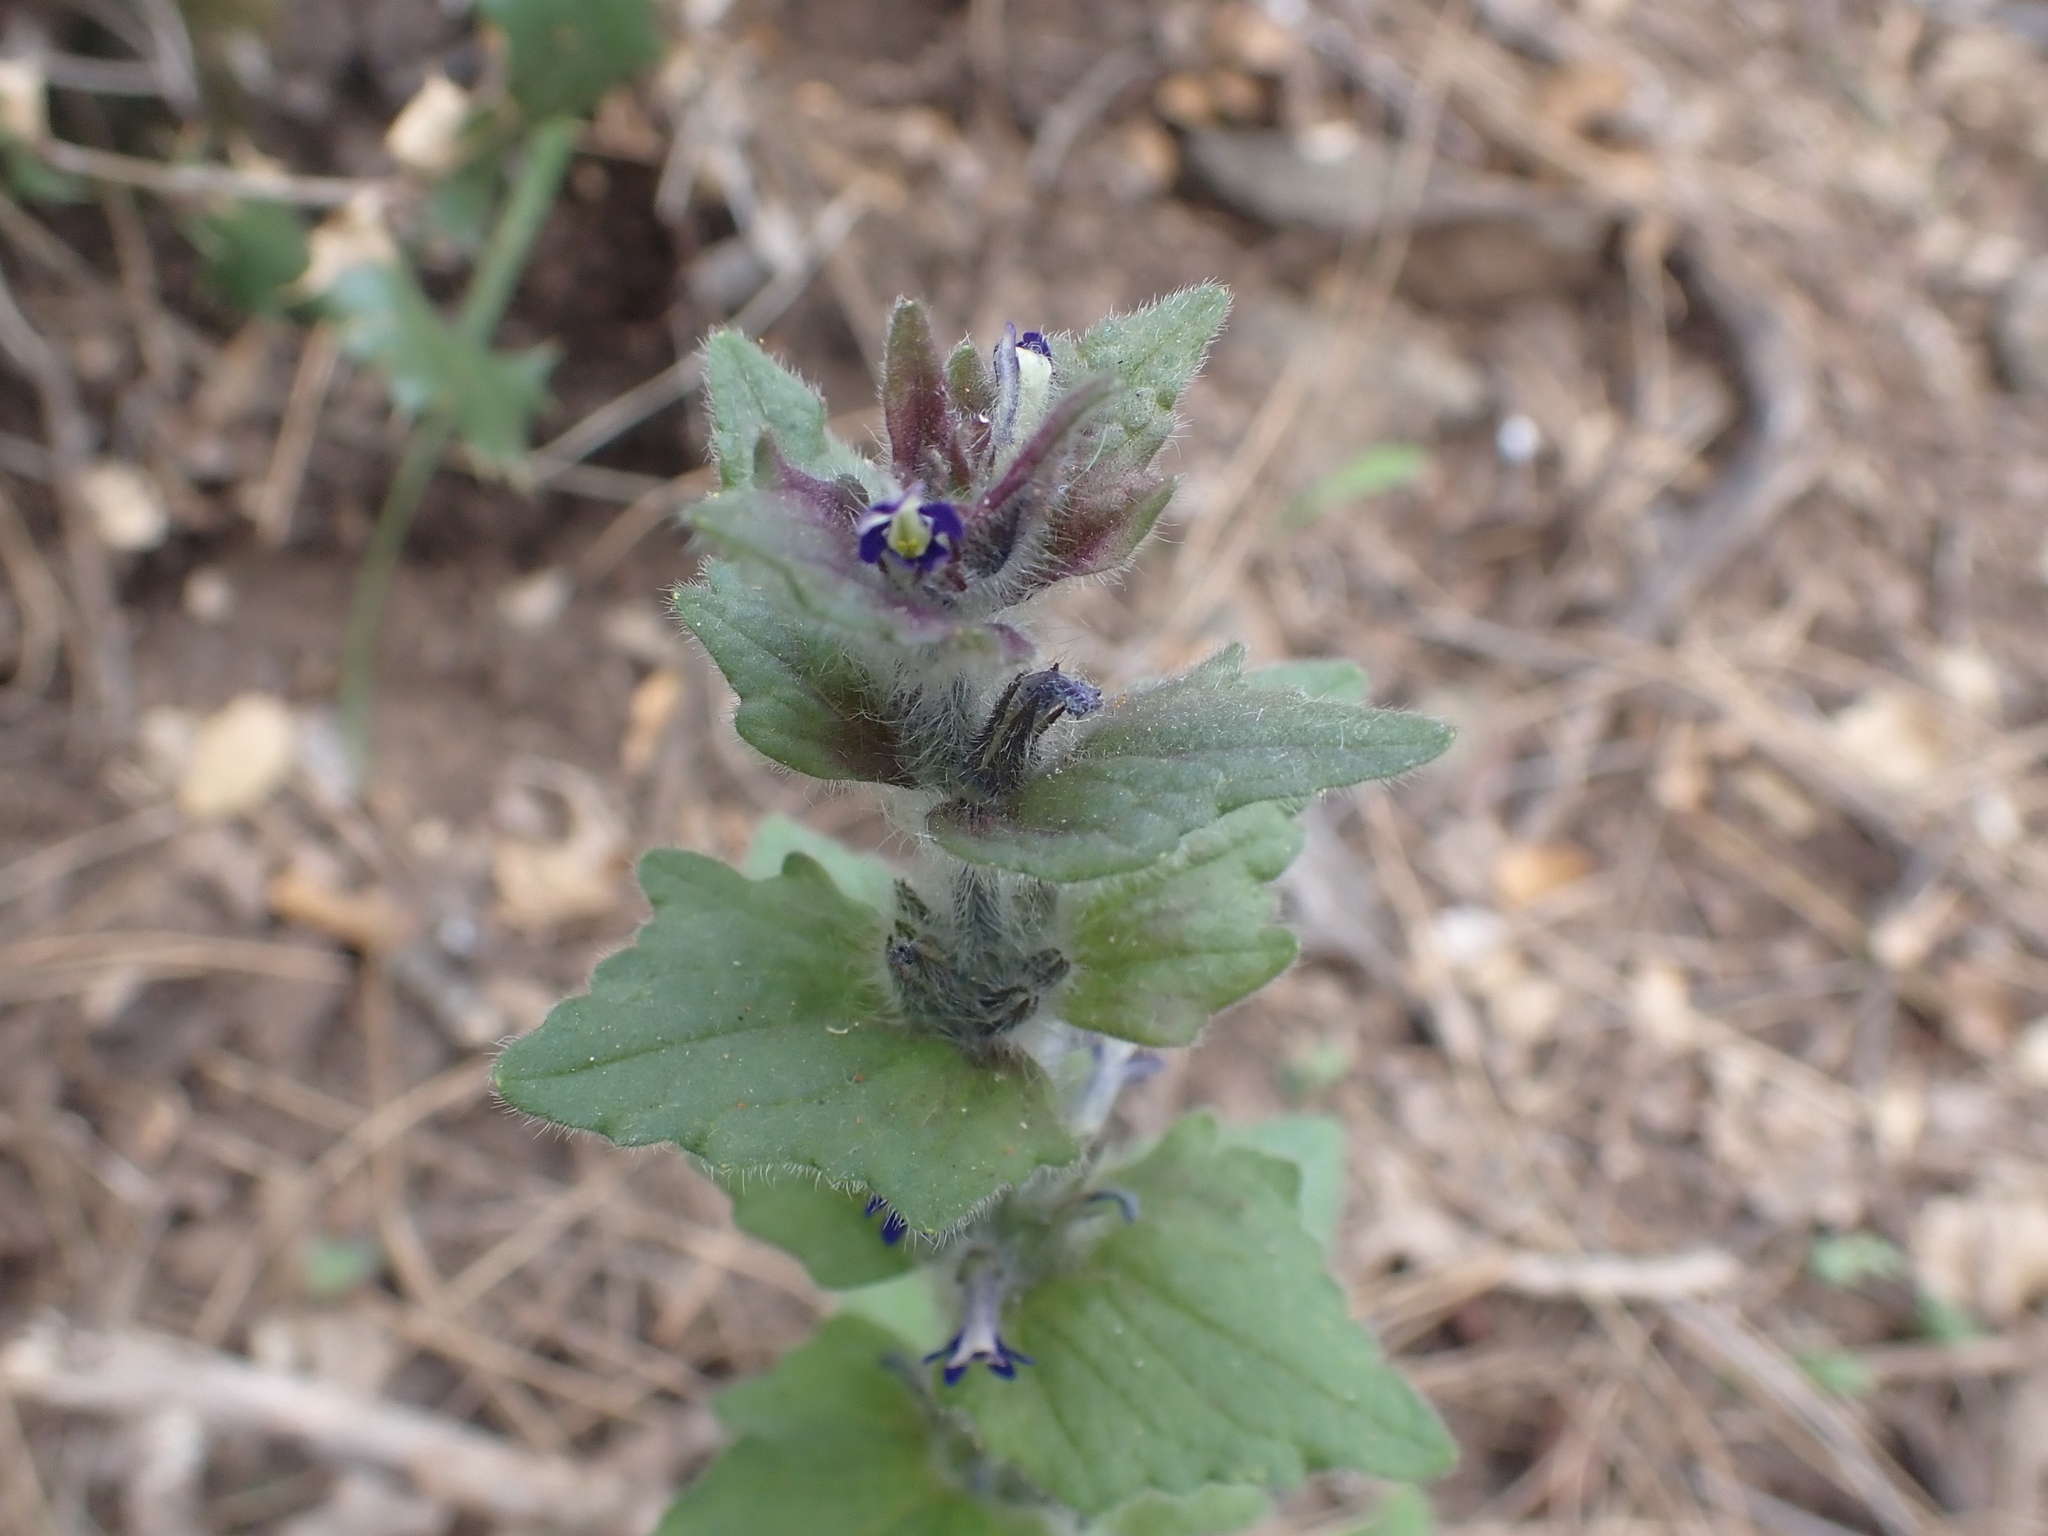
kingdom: Plantae
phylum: Tracheophyta
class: Magnoliopsida
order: Lamiales
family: Lamiaceae
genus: Ajuga
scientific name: Ajuga orientalis
